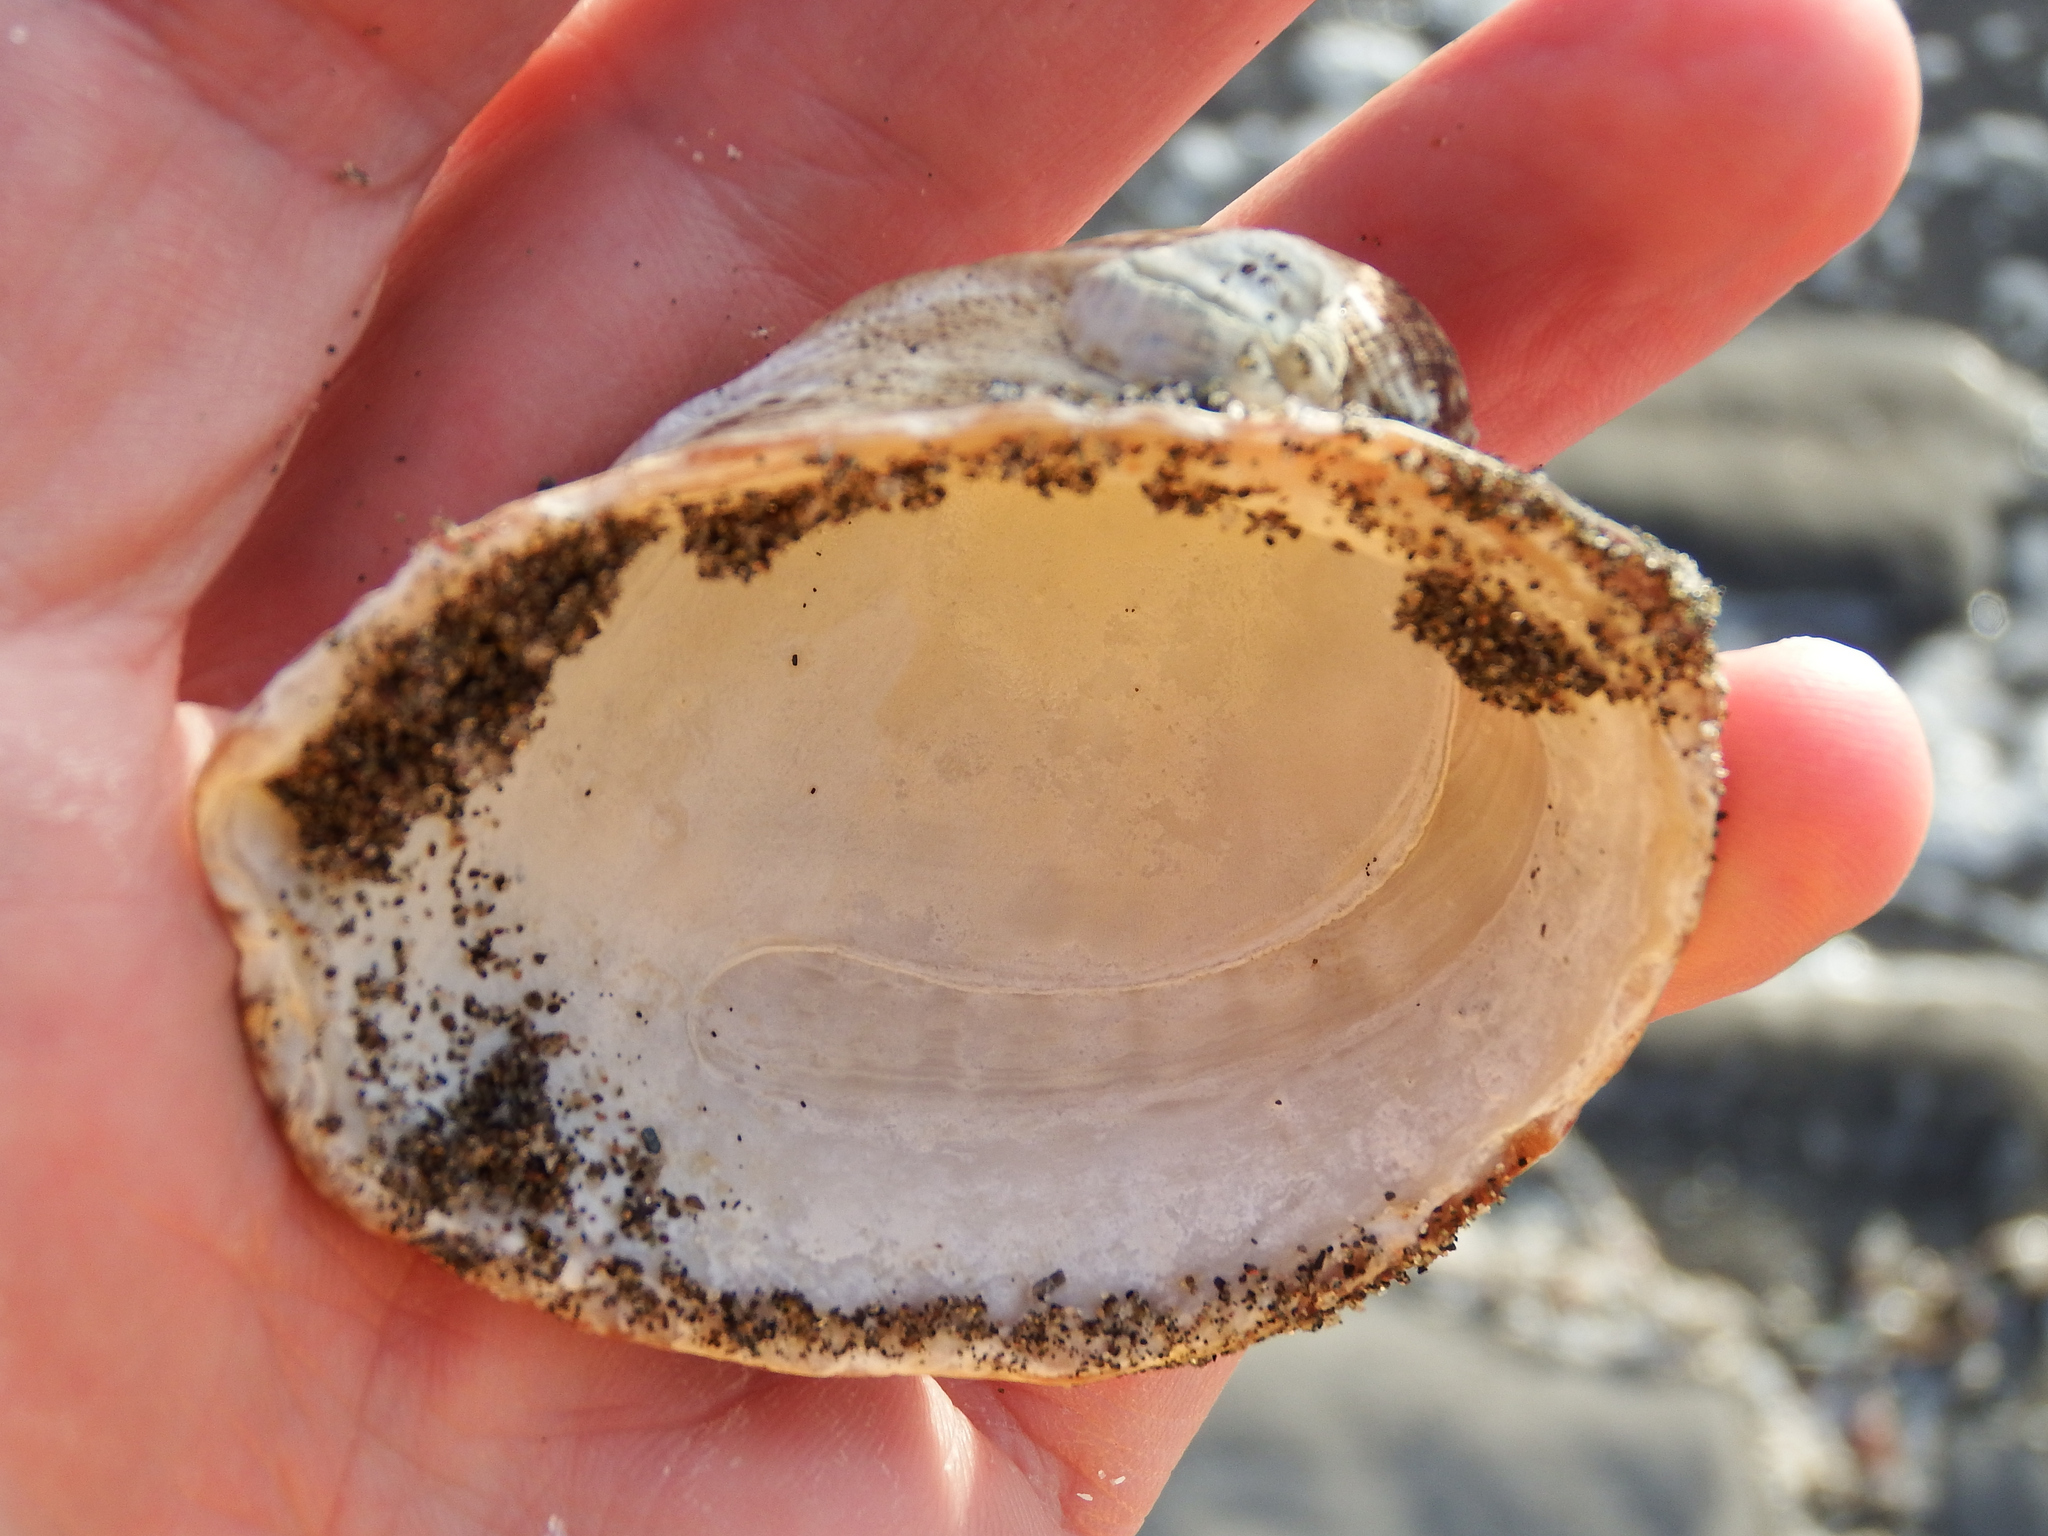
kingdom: Animalia
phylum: Mollusca
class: Gastropoda
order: Neogastropoda
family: Muricidae
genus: Concholepas
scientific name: Concholepas concholepas
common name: Chilean abalone
